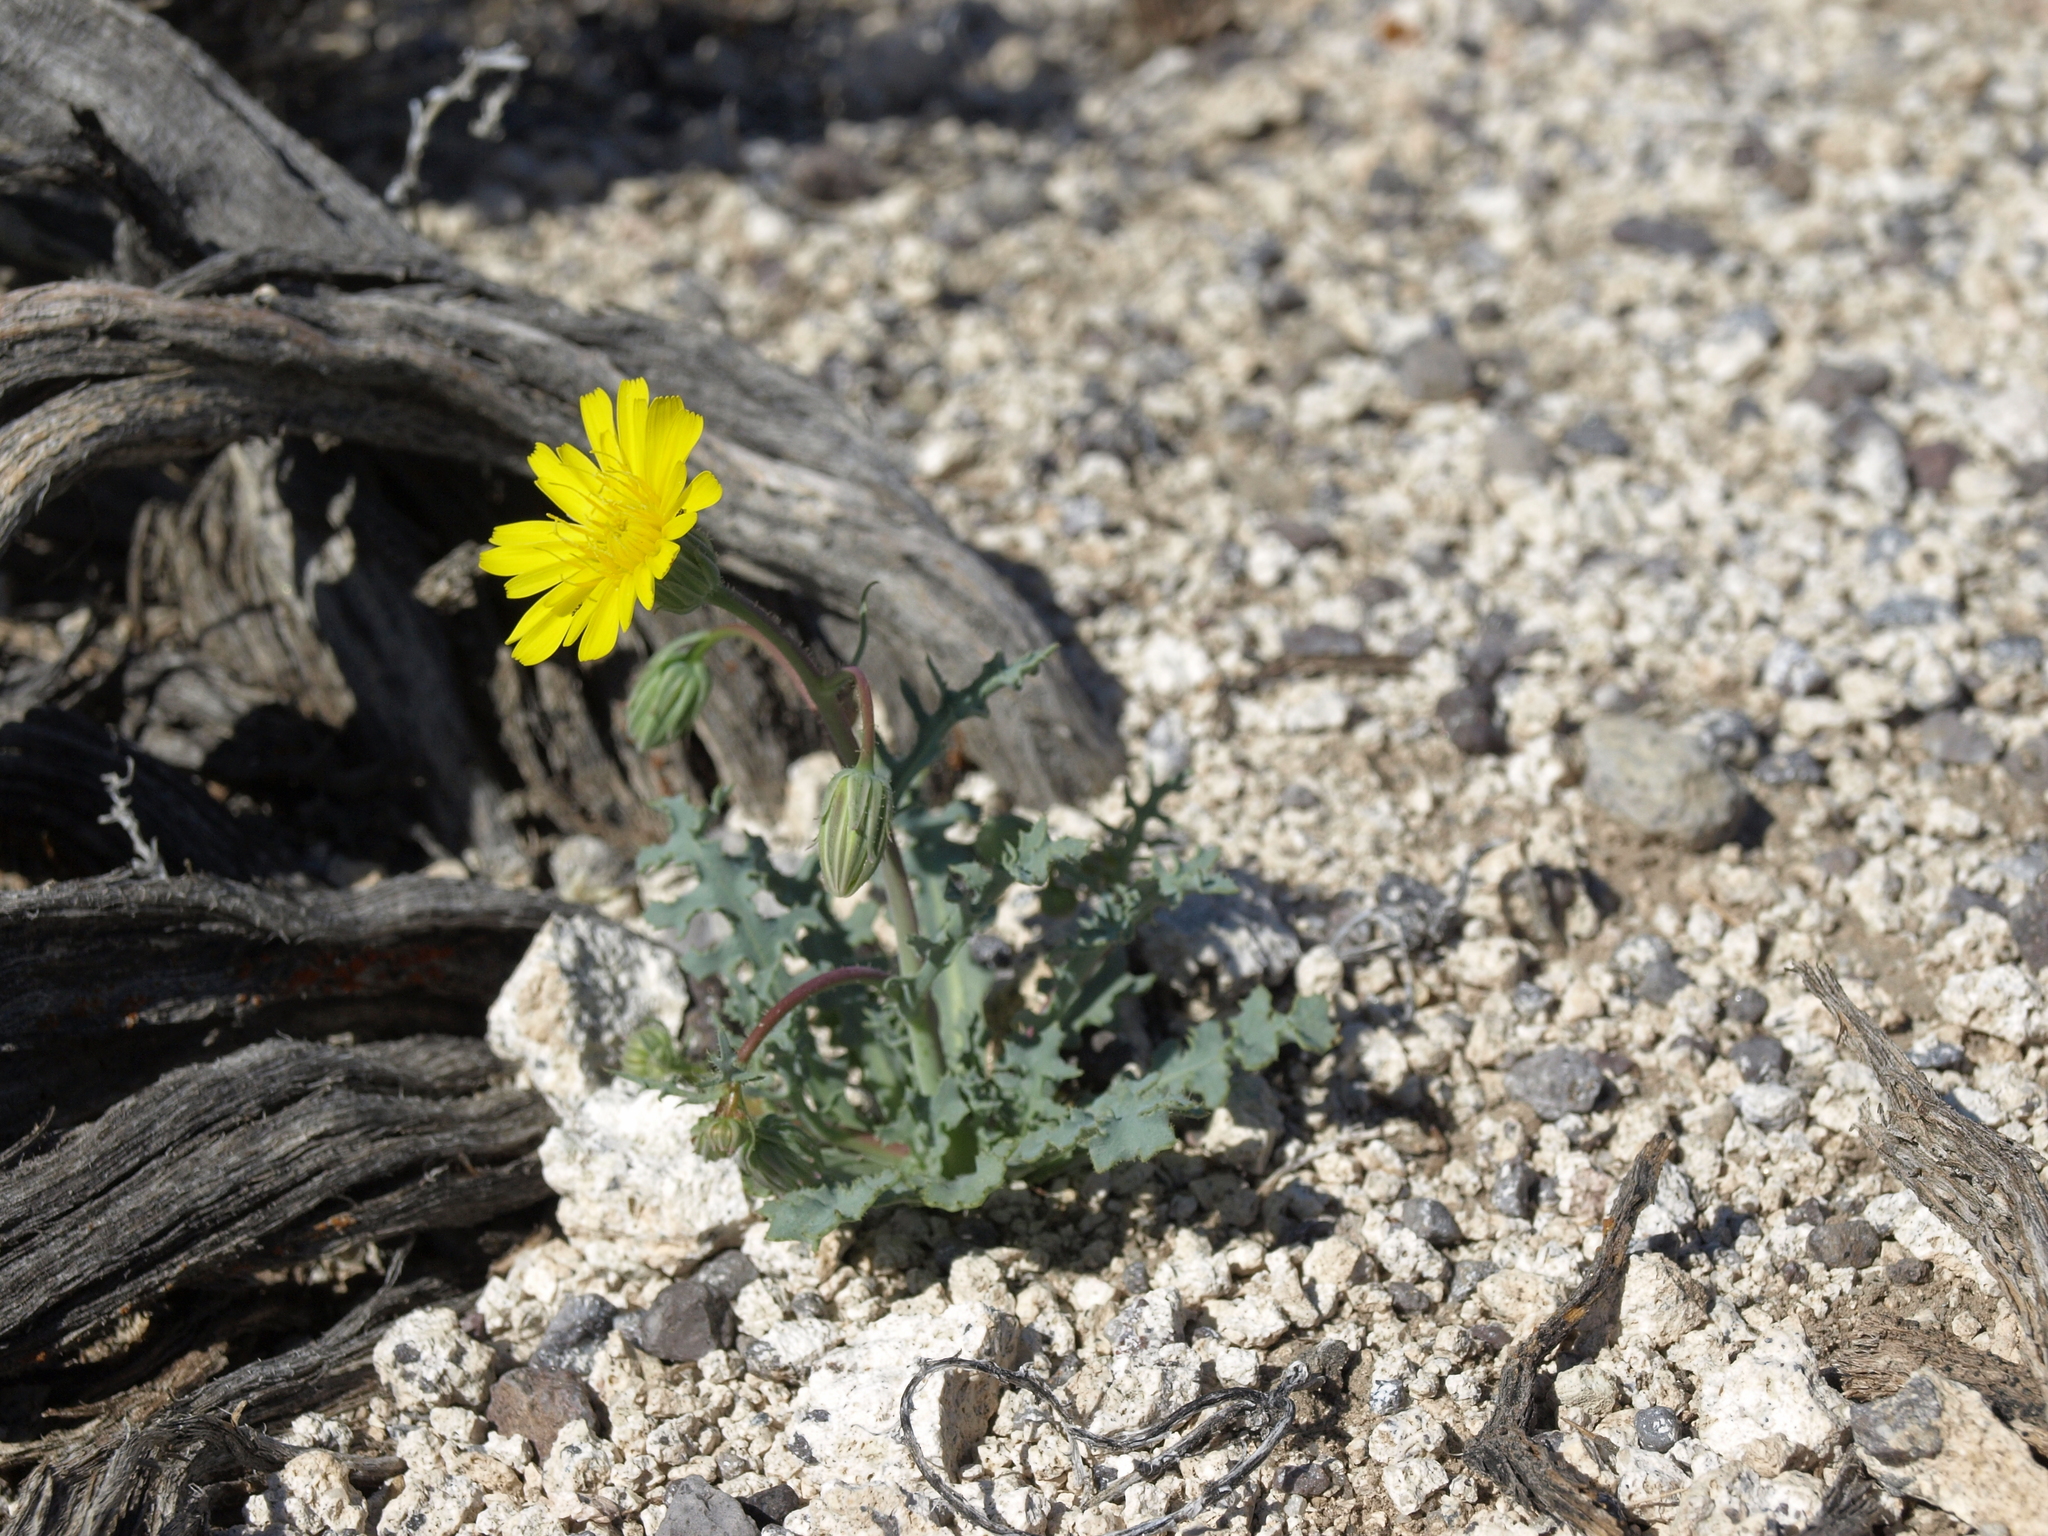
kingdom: Plantae
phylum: Tracheophyta
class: Magnoliopsida
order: Asterales
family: Asteraceae
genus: Malacothrix
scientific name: Malacothrix torreyi
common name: Torrey's desert-dandelion
